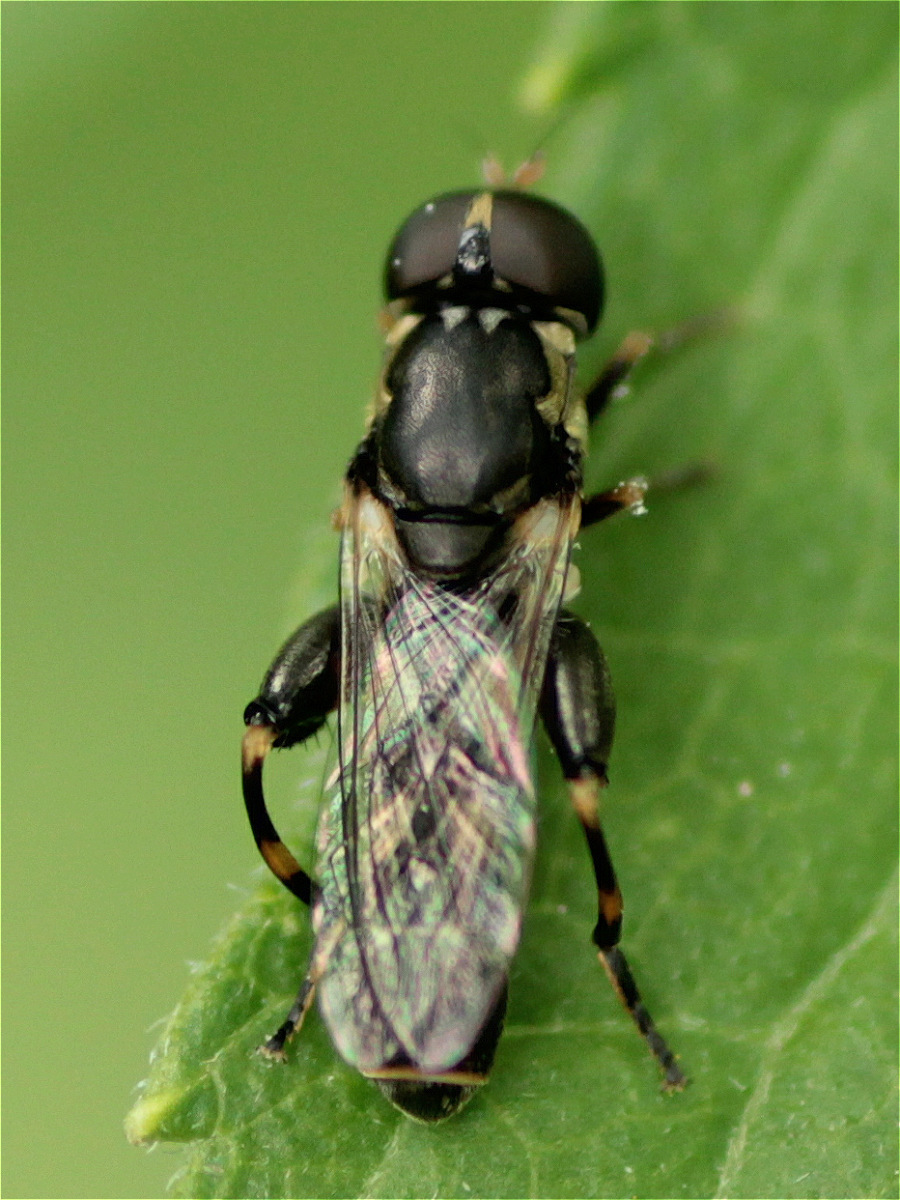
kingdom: Animalia
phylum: Arthropoda
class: Insecta
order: Diptera
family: Syrphidae
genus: Syritta
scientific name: Syritta pipiens
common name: Hover fly
